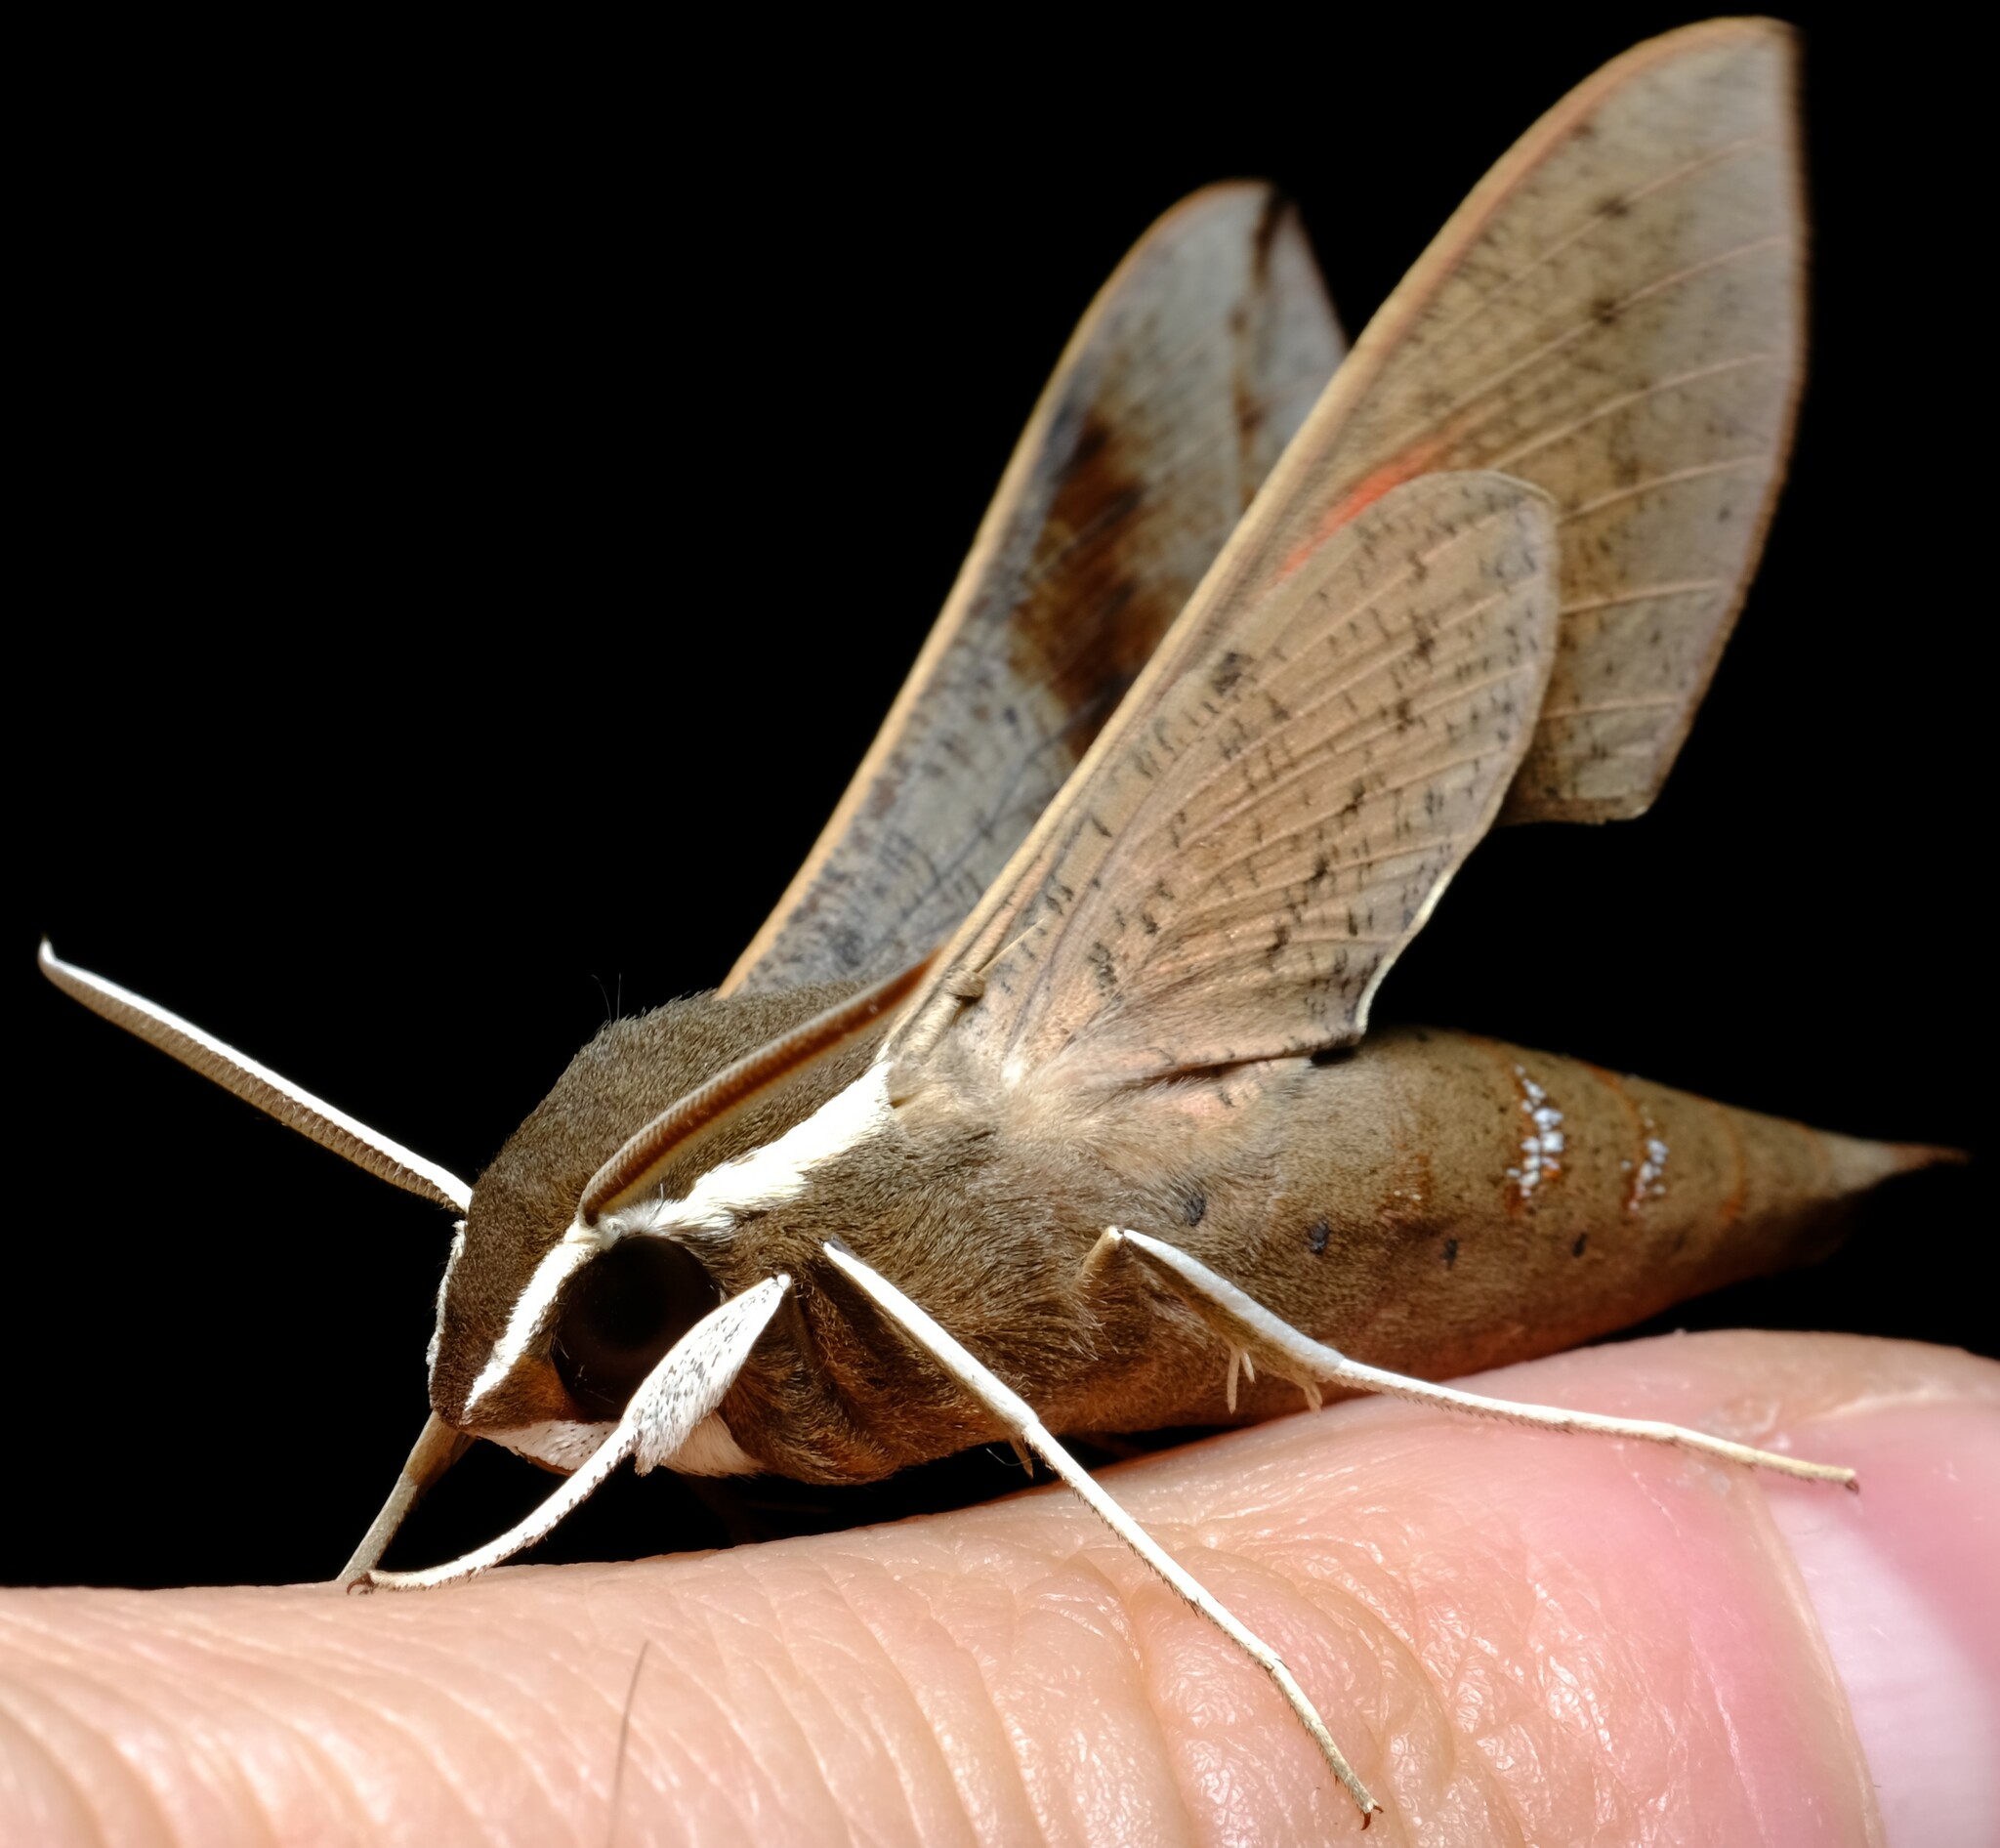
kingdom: Animalia
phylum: Arthropoda
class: Insecta
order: Lepidoptera
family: Sphingidae
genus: Hippotion
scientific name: Hippotion scrofa
